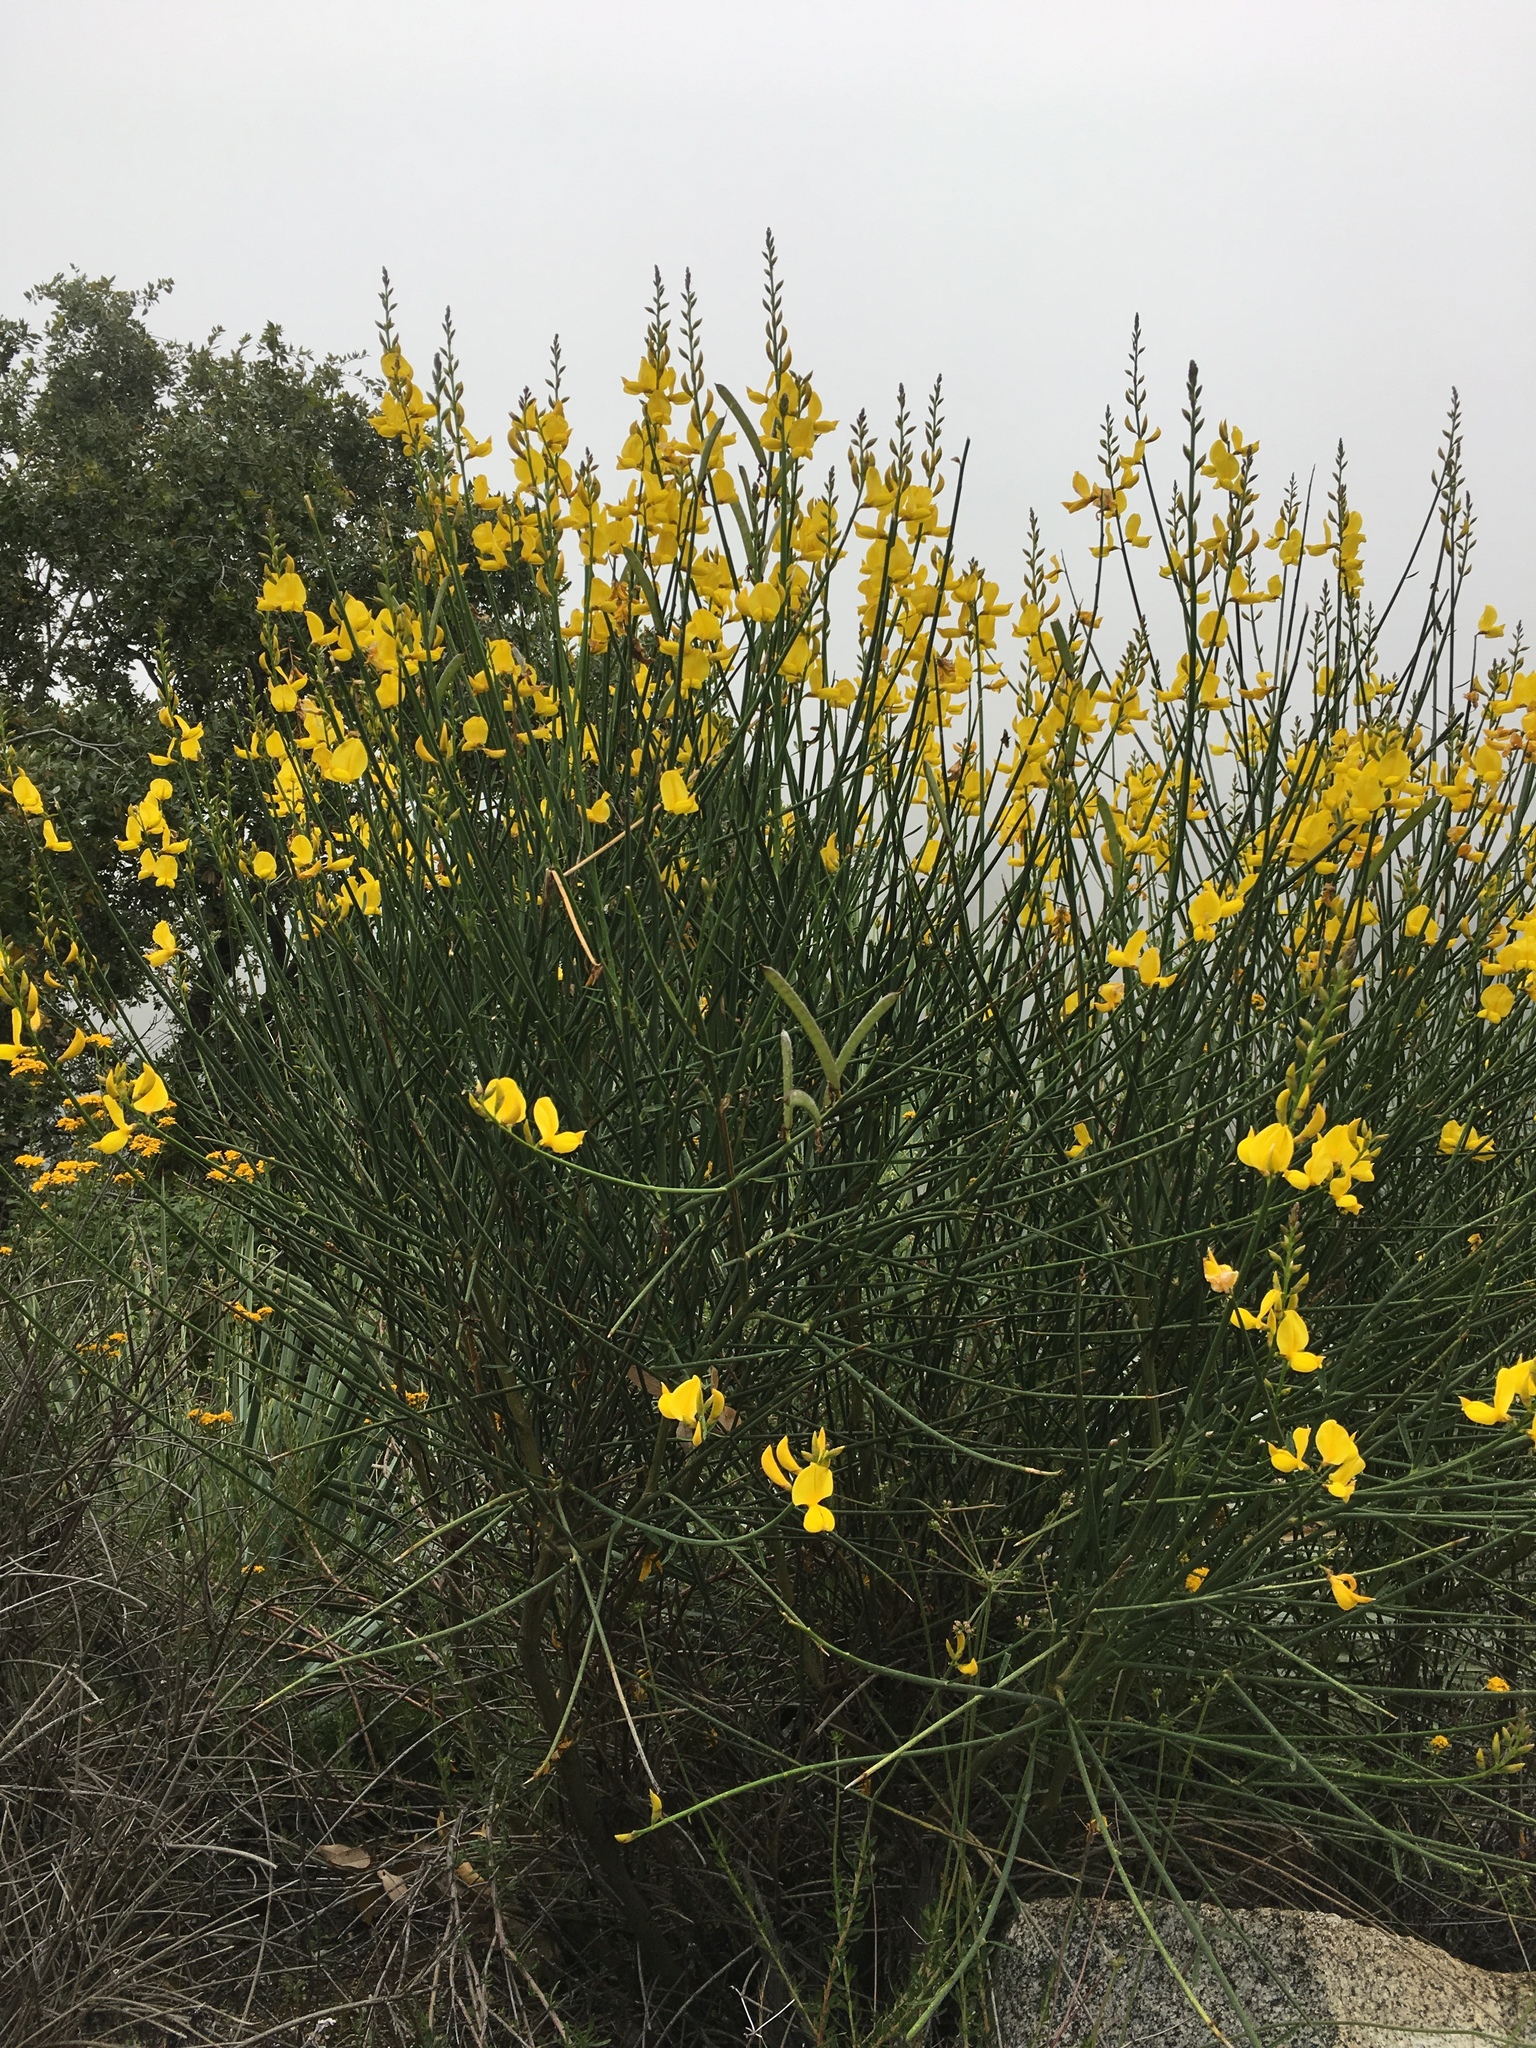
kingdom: Plantae
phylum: Tracheophyta
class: Magnoliopsida
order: Fabales
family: Fabaceae
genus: Spartium
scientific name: Spartium junceum
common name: Spanish broom
